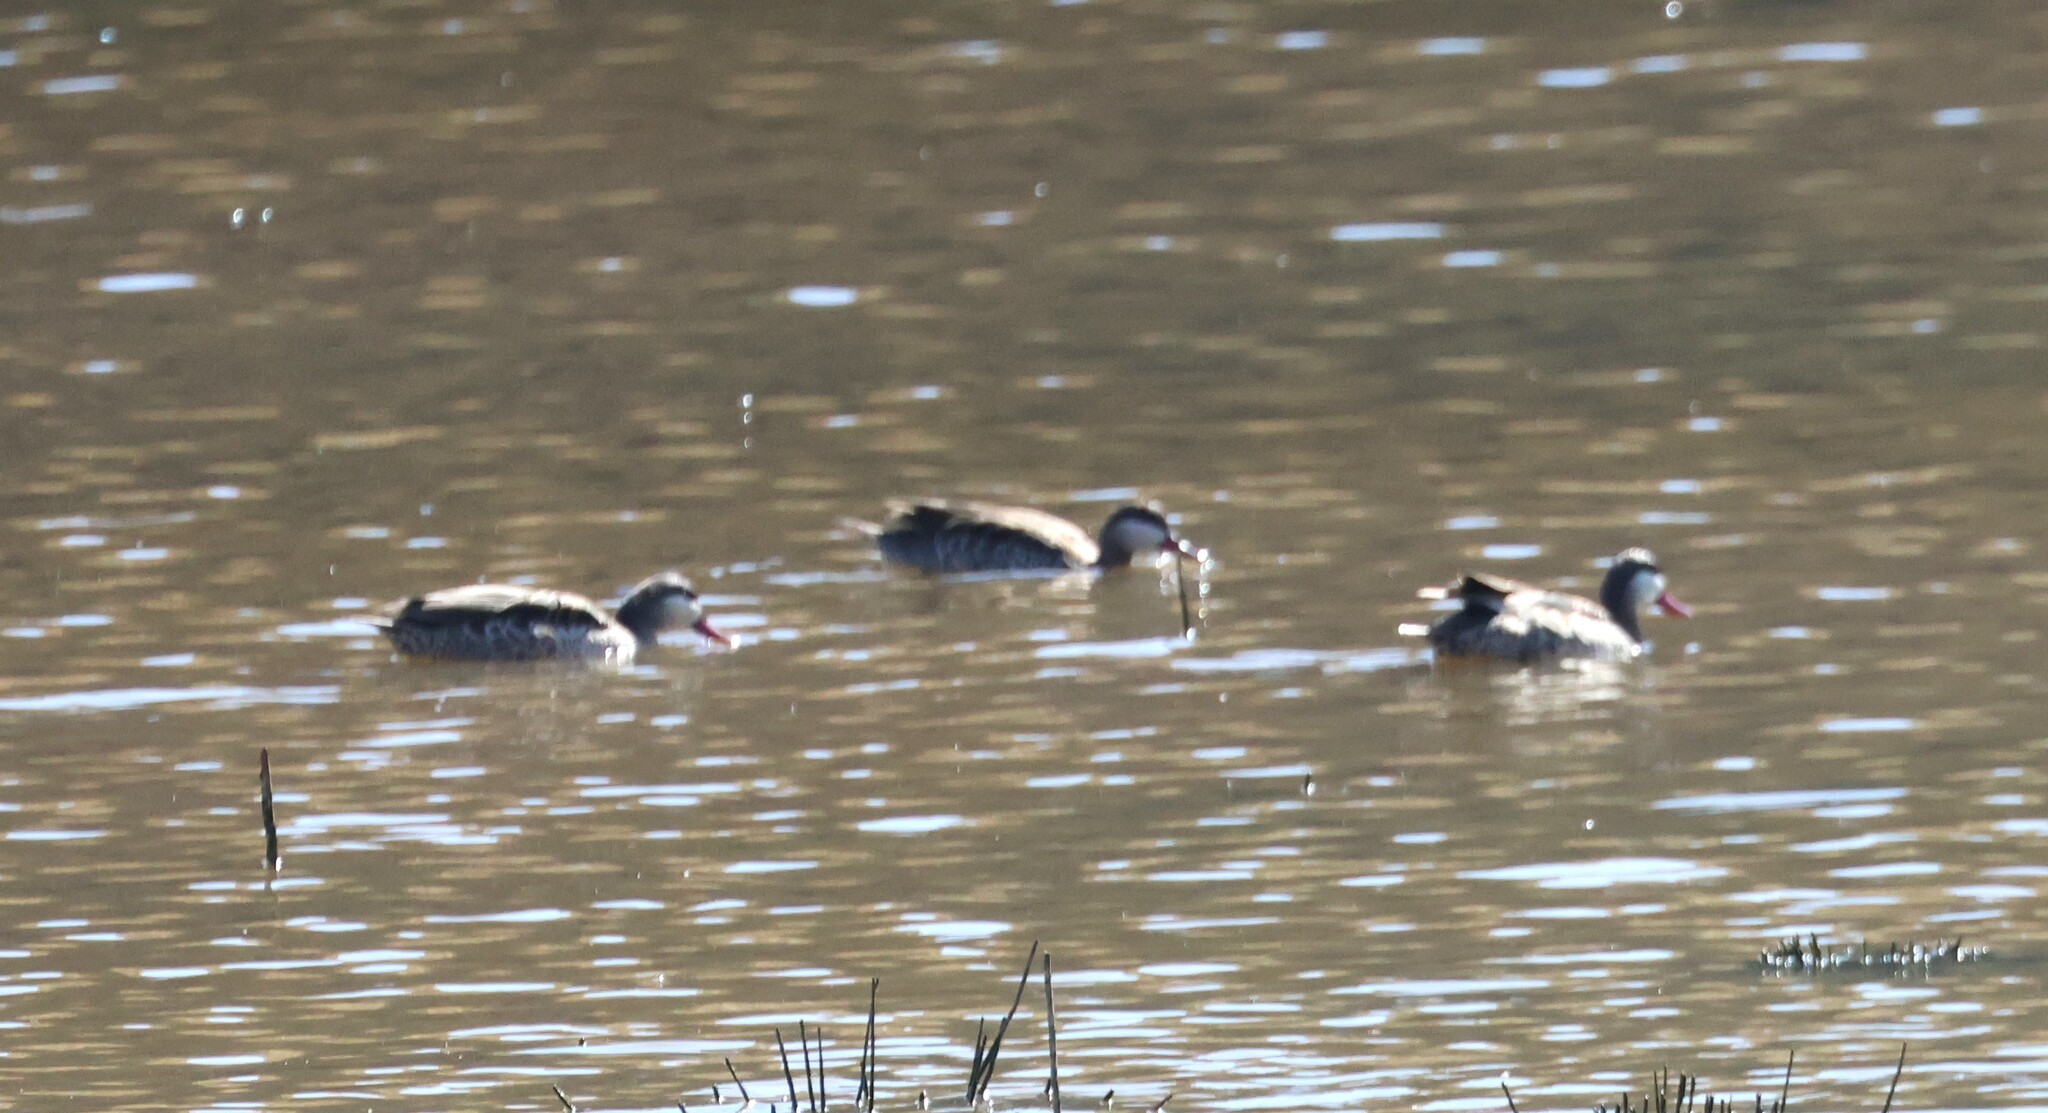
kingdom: Animalia
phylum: Chordata
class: Aves
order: Anseriformes
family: Anatidae
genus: Anas
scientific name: Anas erythrorhyncha
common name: Red-billed teal
